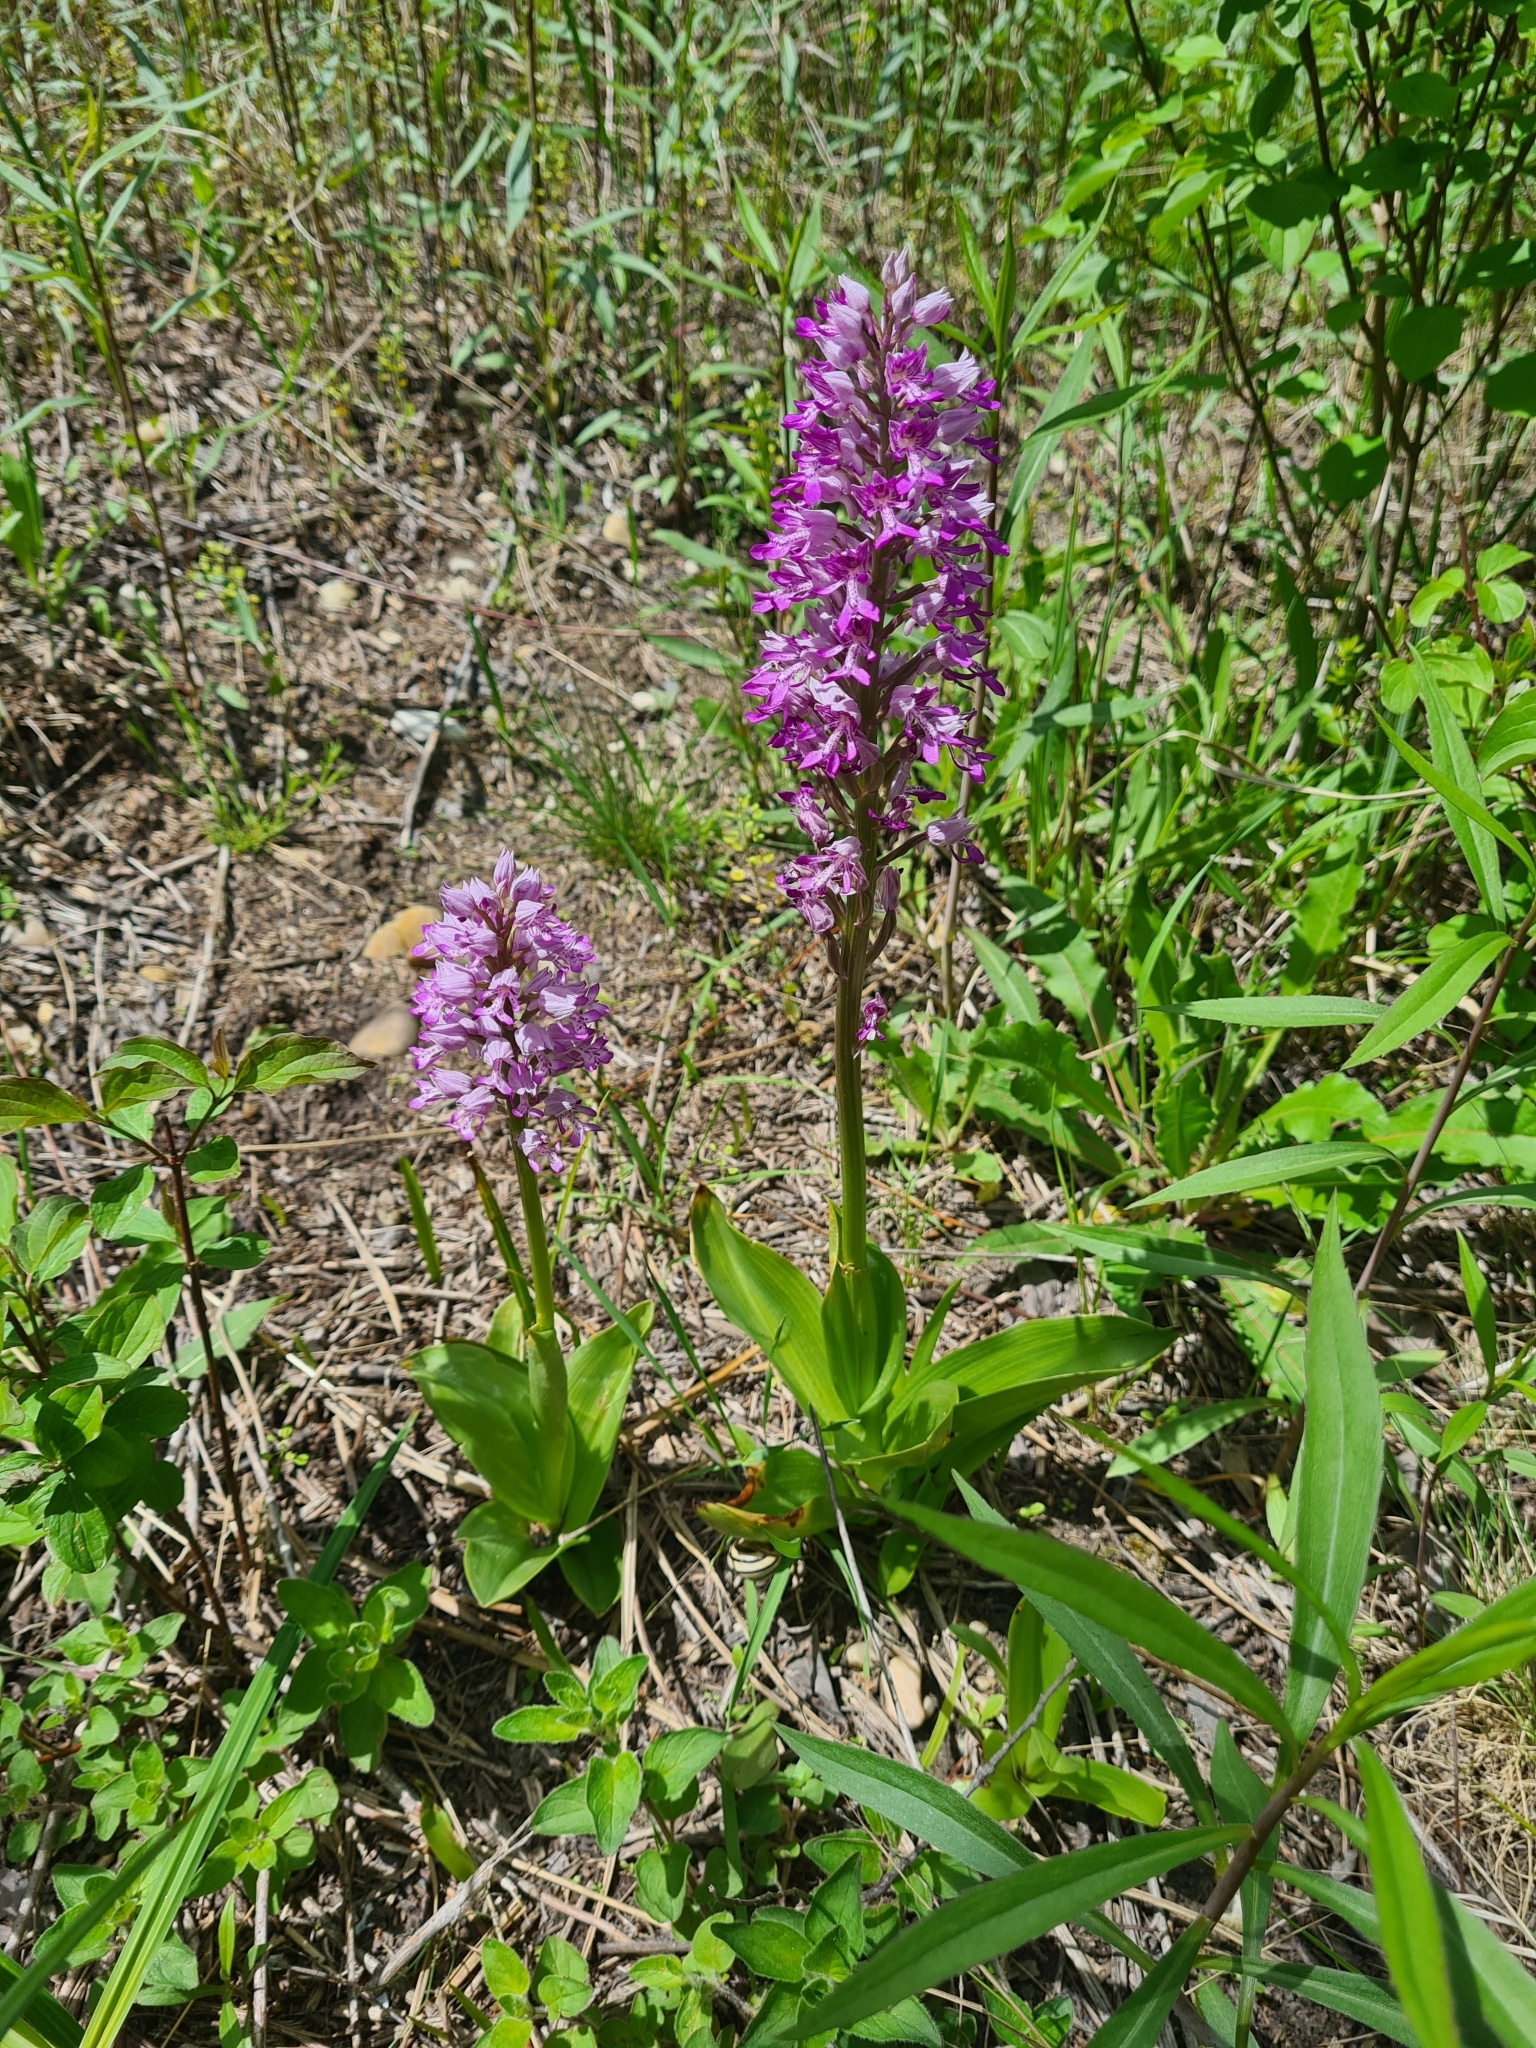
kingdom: Plantae
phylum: Tracheophyta
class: Liliopsida
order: Asparagales
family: Orchidaceae
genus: Orchis
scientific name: Orchis militaris
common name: Military orchid
